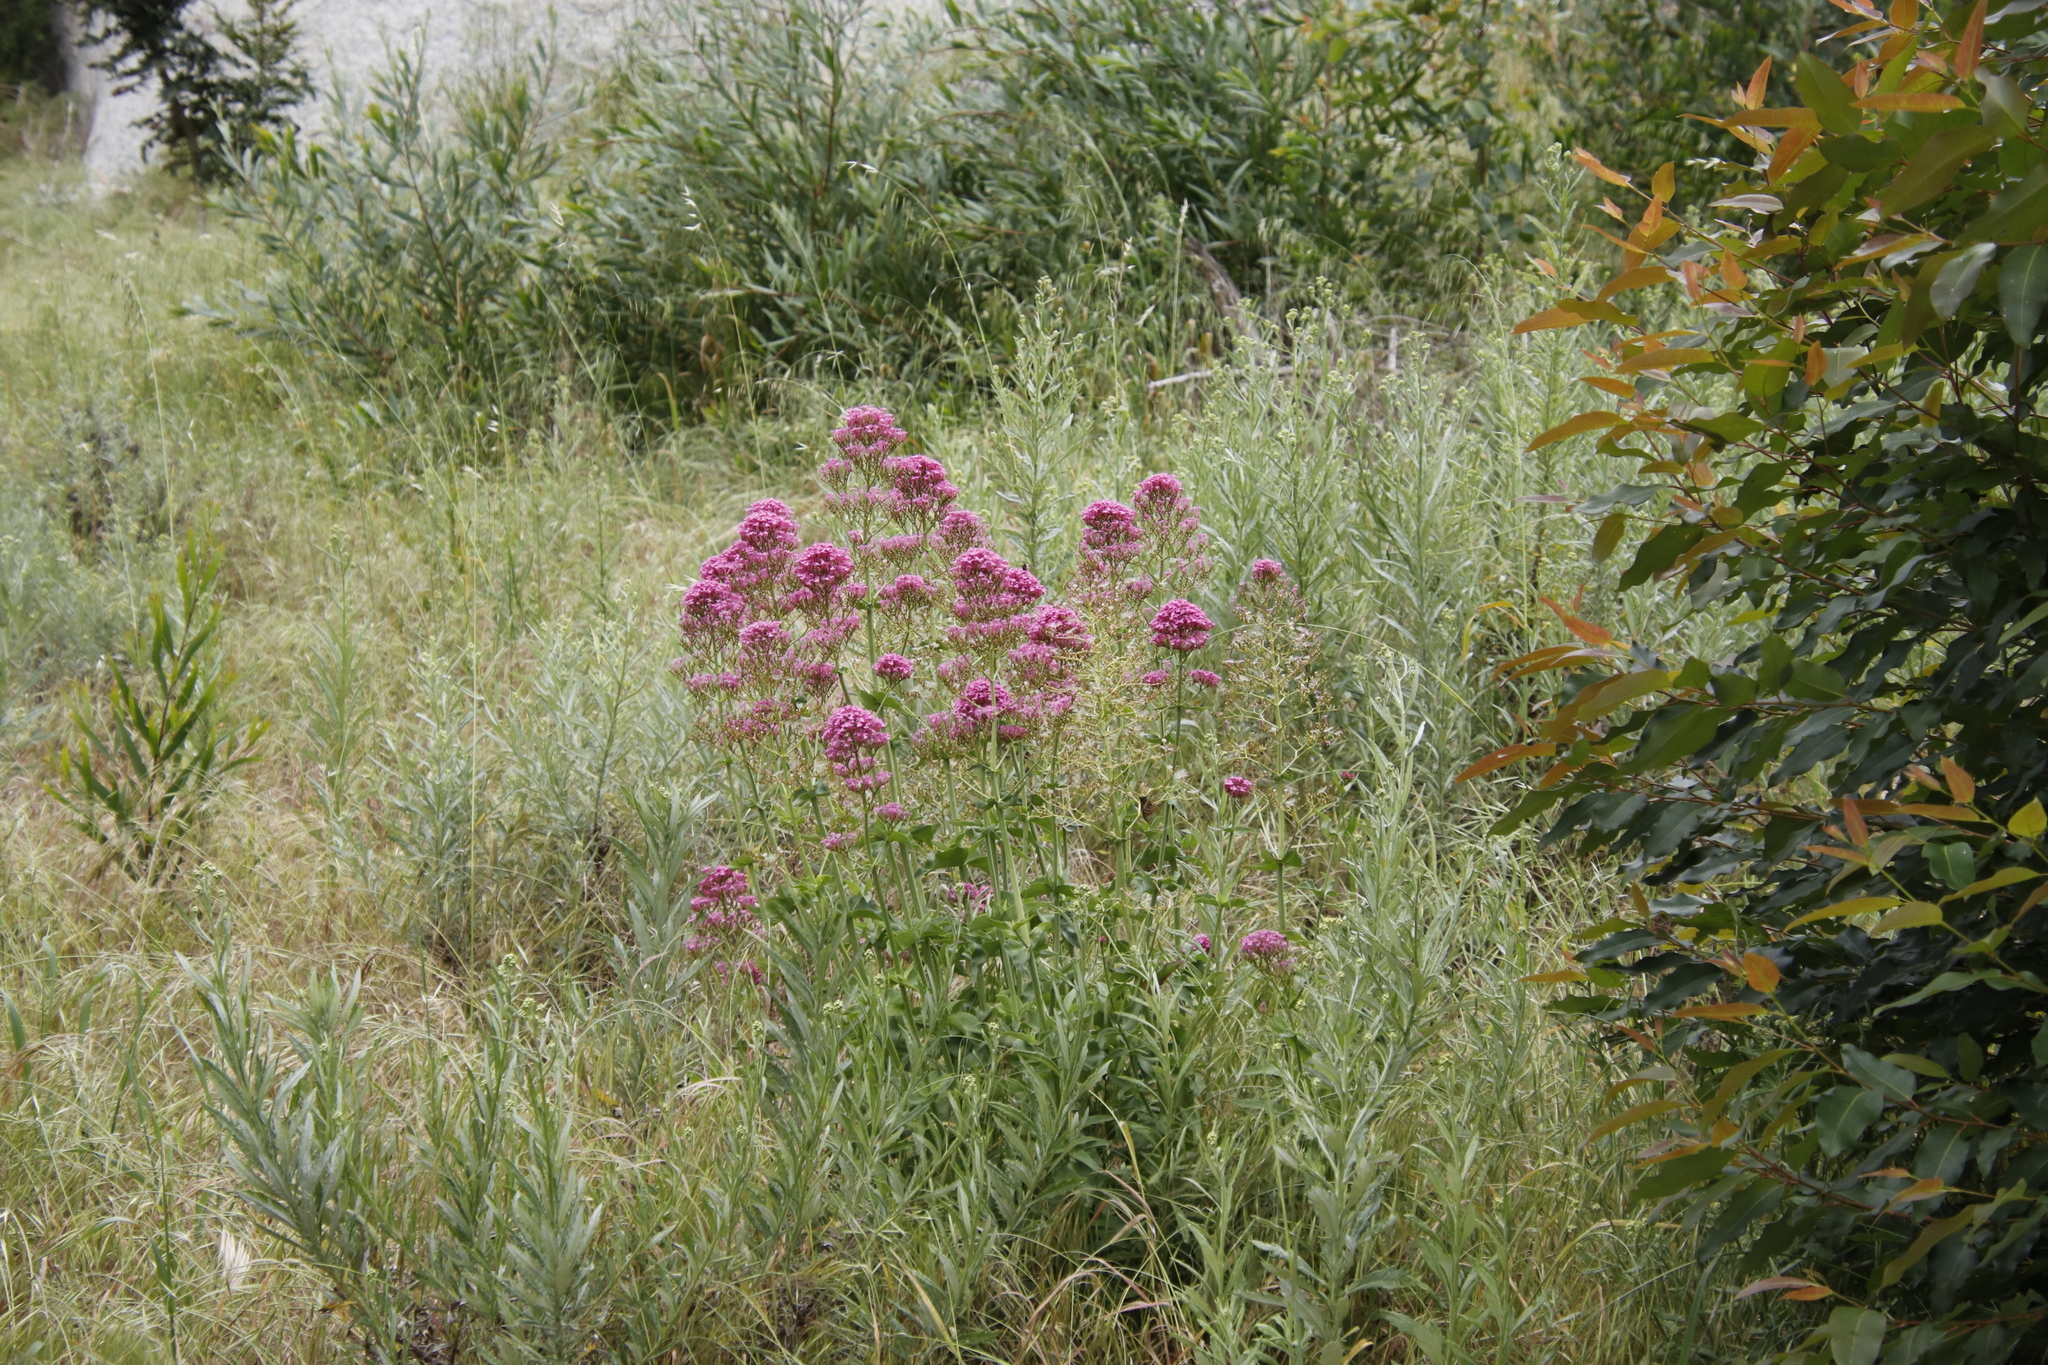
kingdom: Plantae
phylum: Tracheophyta
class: Magnoliopsida
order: Dipsacales
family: Caprifoliaceae
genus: Centranthus
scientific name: Centranthus ruber
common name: Red valerian
